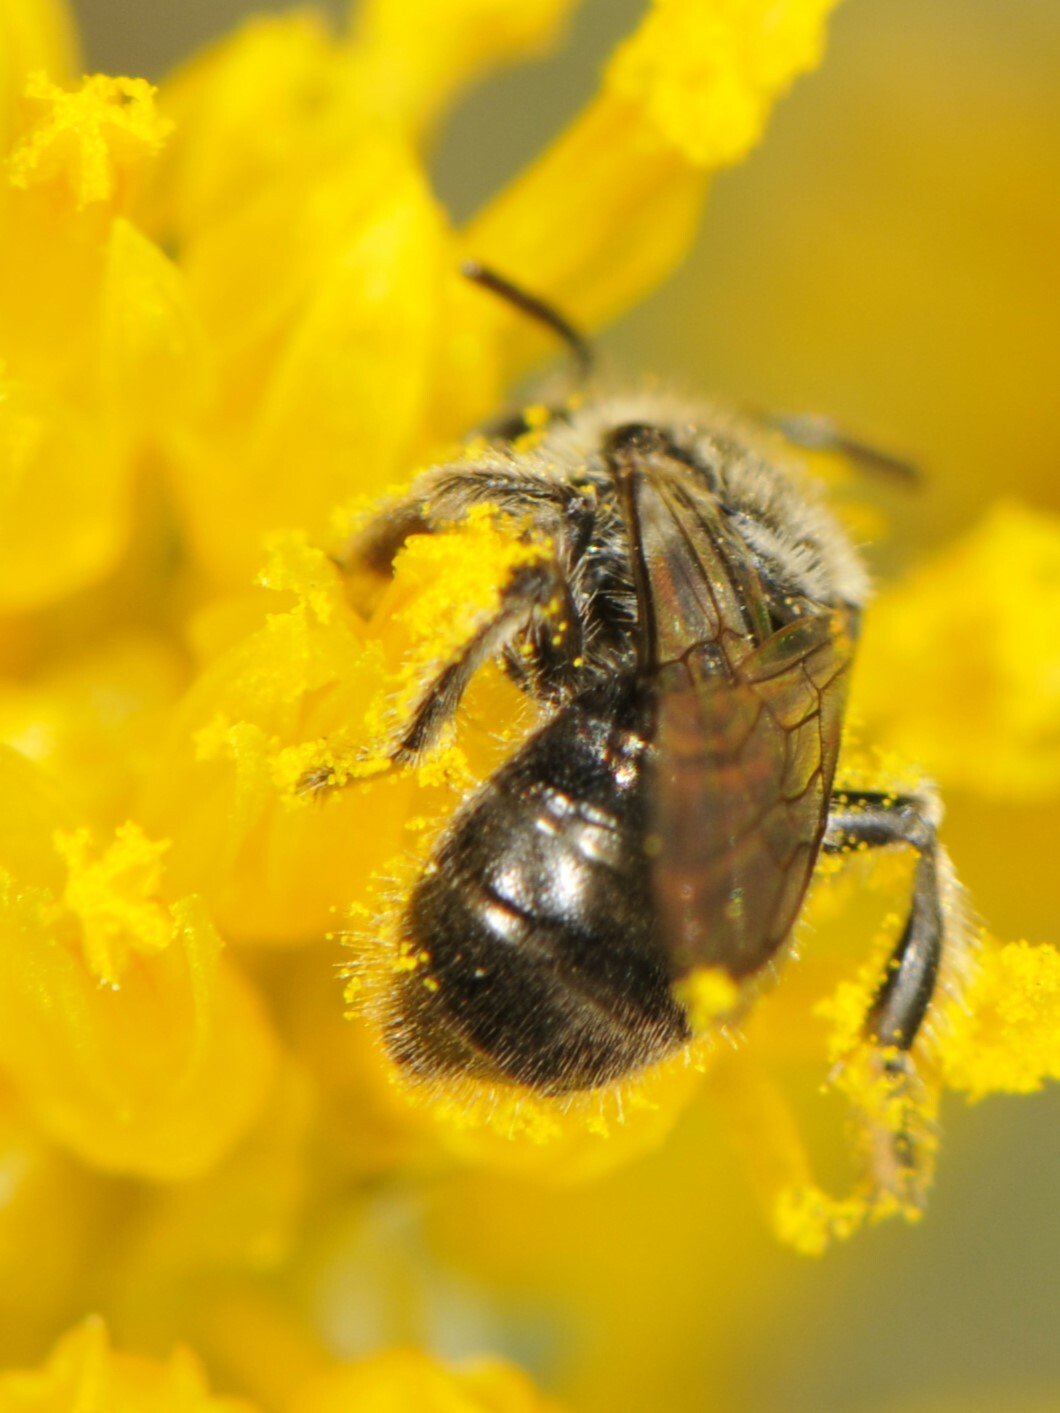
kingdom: Animalia
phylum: Arthropoda
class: Insecta
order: Hymenoptera
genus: Hypomacrotera
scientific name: Hypomacrotera
